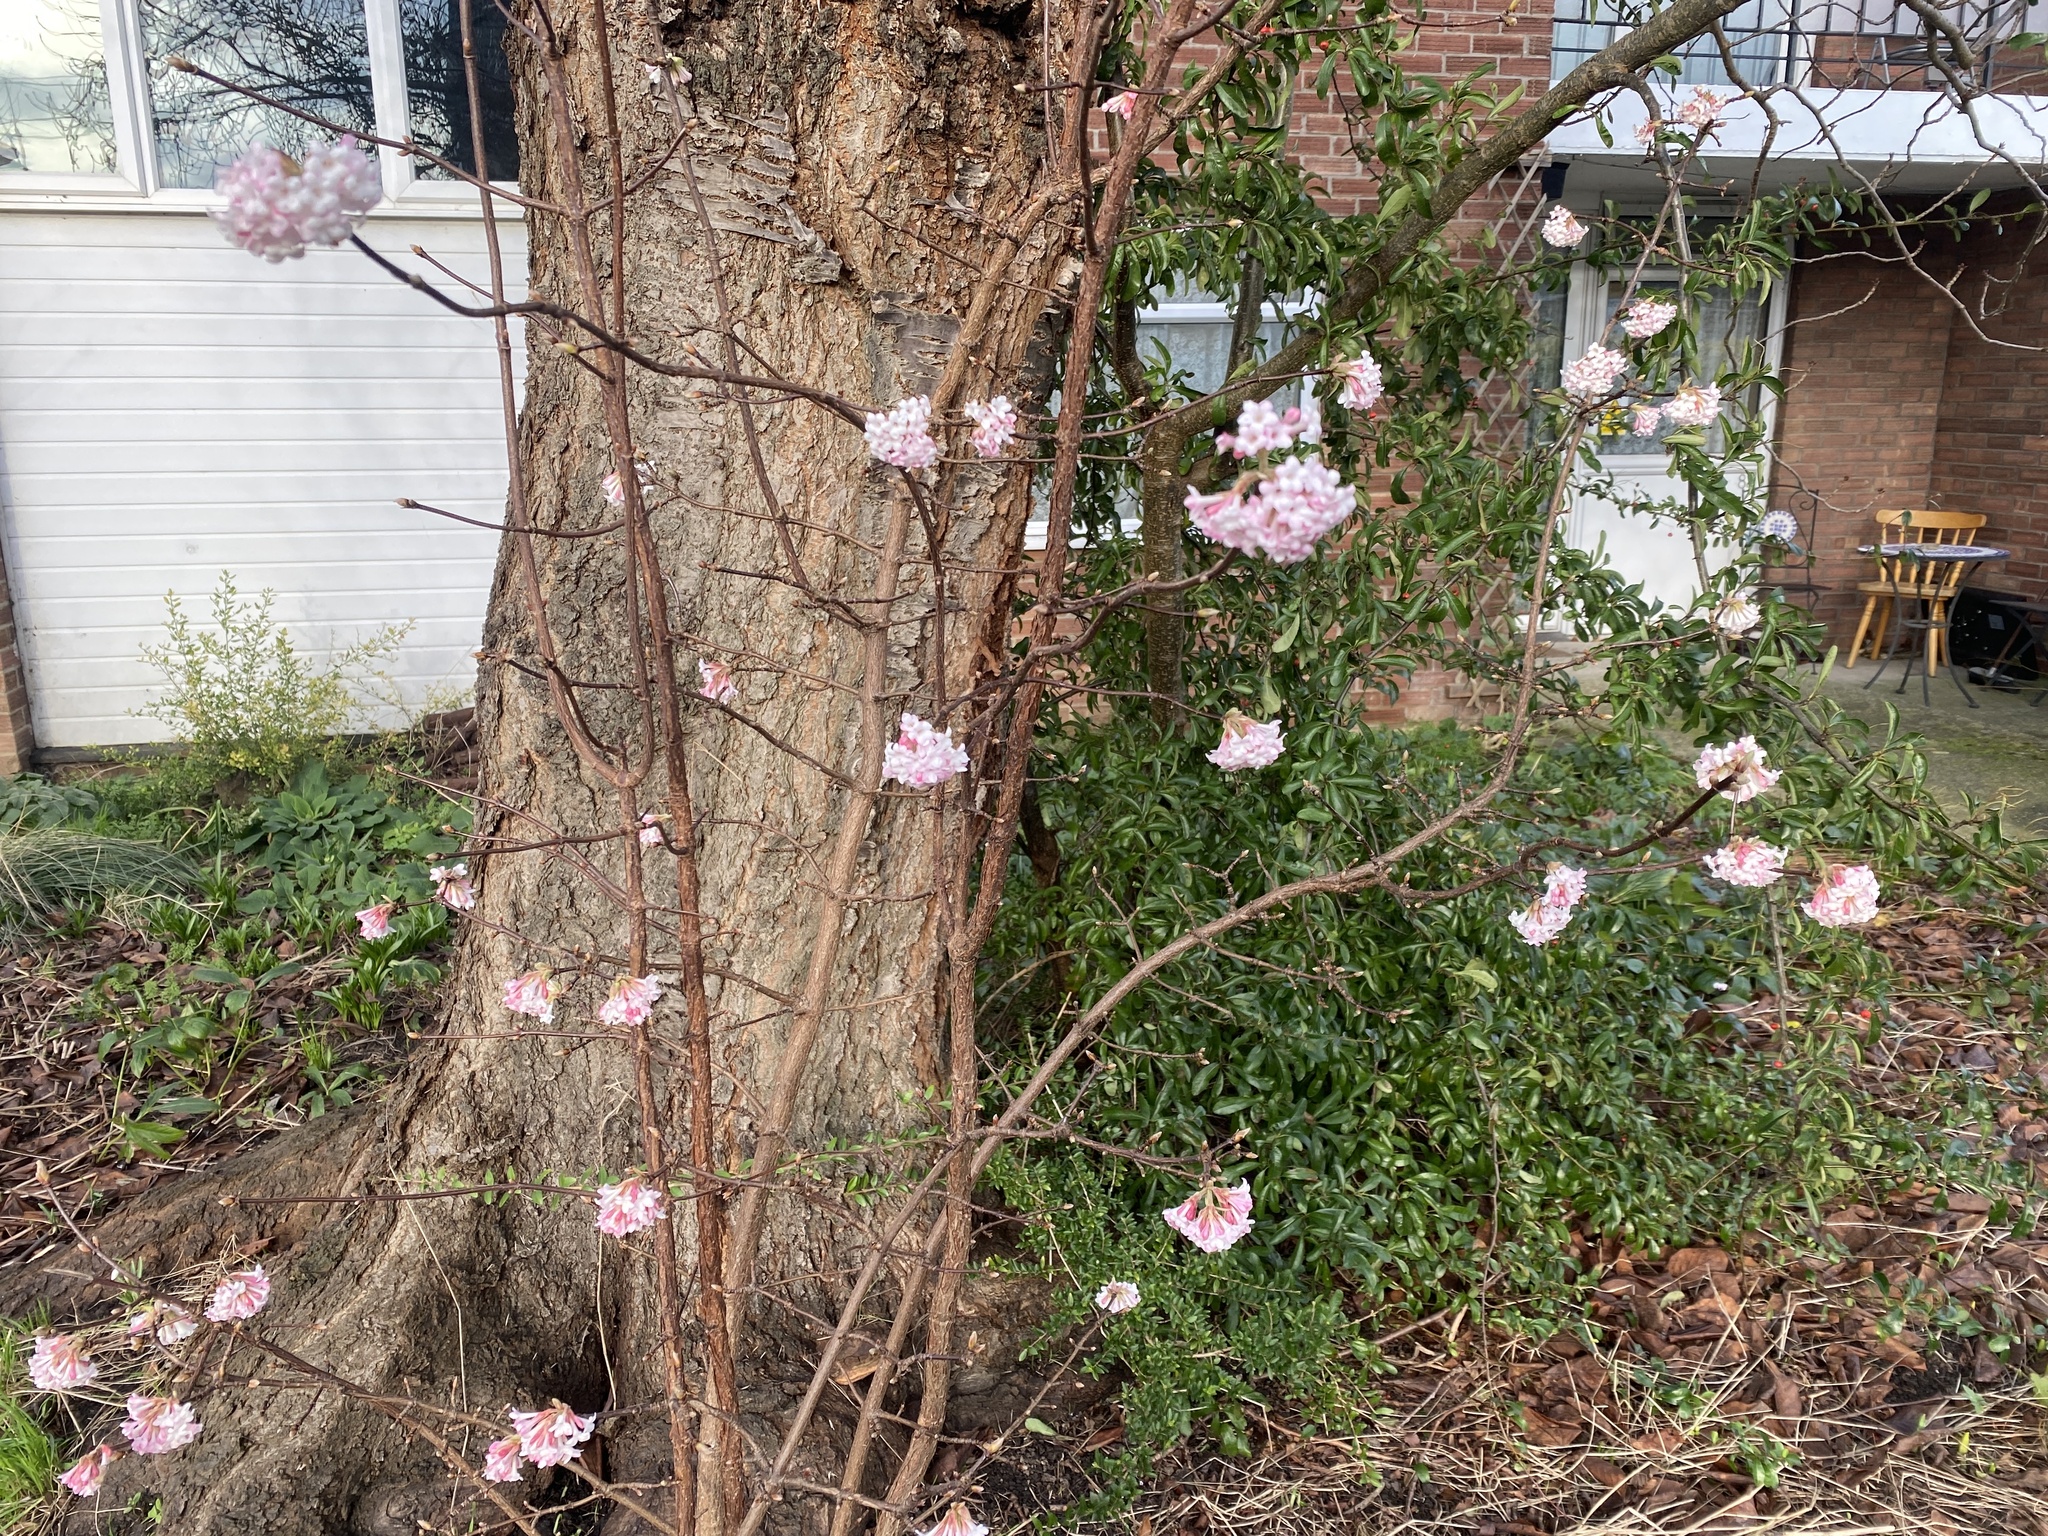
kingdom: Plantae
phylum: Tracheophyta
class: Magnoliopsida
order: Dipsacales
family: Viburnaceae
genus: Viburnum
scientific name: Viburnum bodnantense
